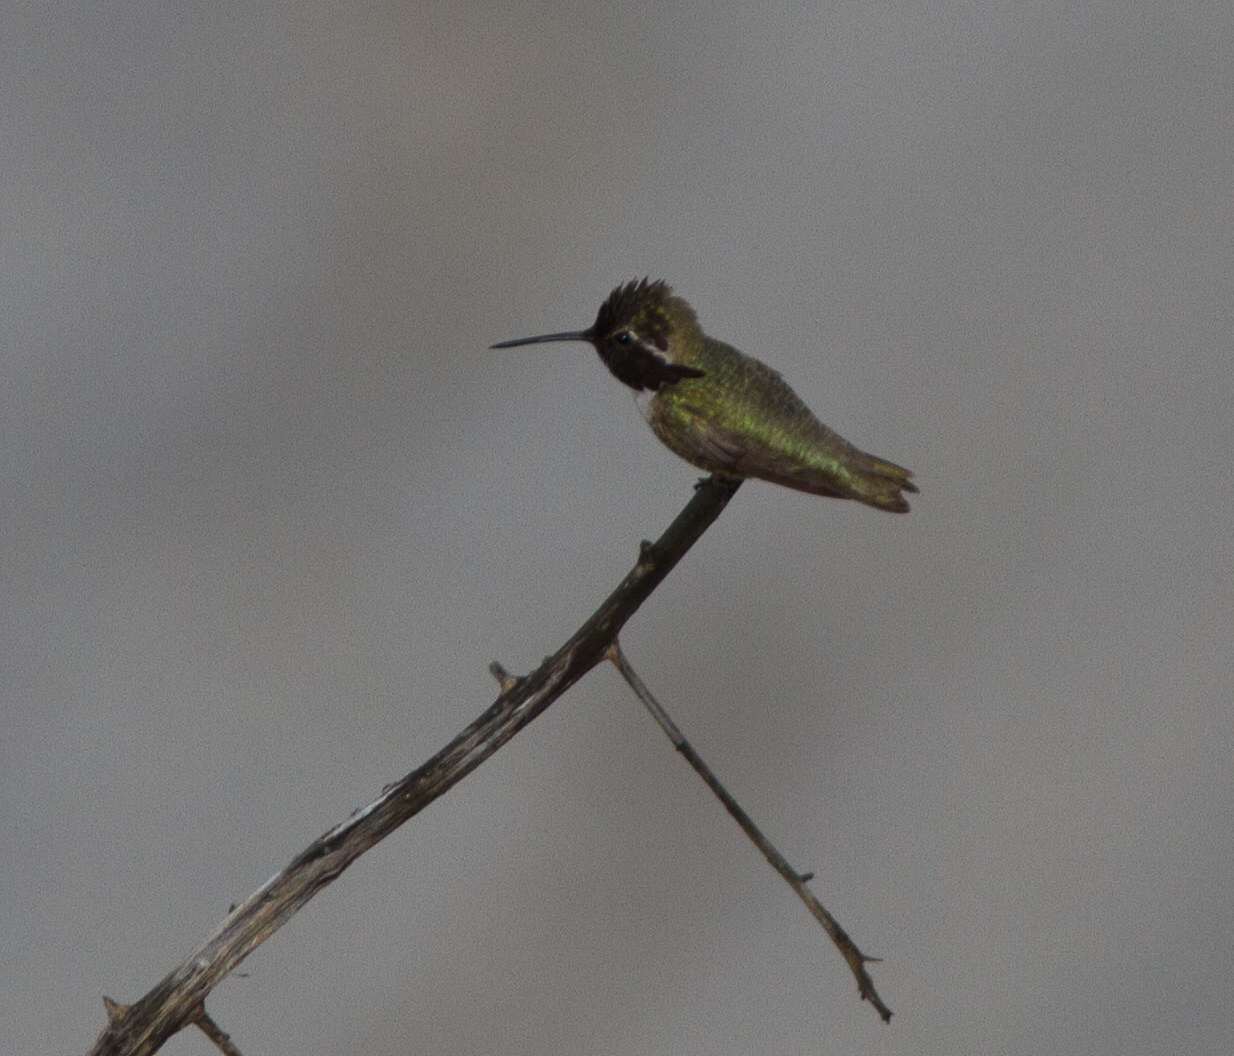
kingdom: Animalia
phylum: Chordata
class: Aves
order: Apodiformes
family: Trochilidae
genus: Calypte
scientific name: Calypte costae
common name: Costa's hummingbird
